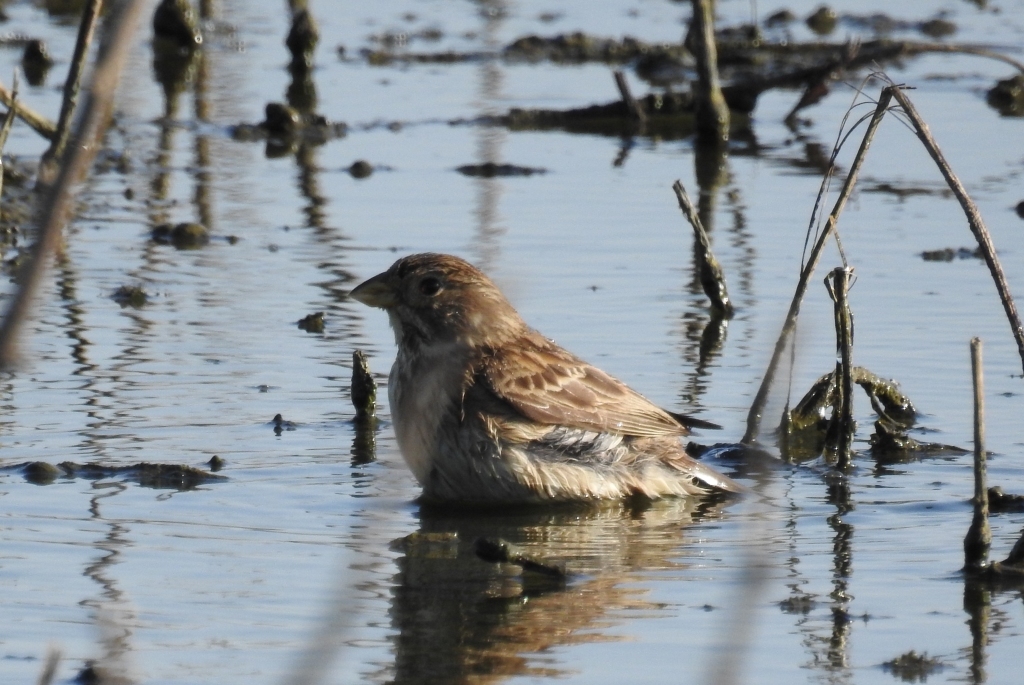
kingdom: Animalia
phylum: Chordata
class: Aves
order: Passeriformes
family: Emberizidae
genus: Emberiza
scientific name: Emberiza calandra
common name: Corn bunting
